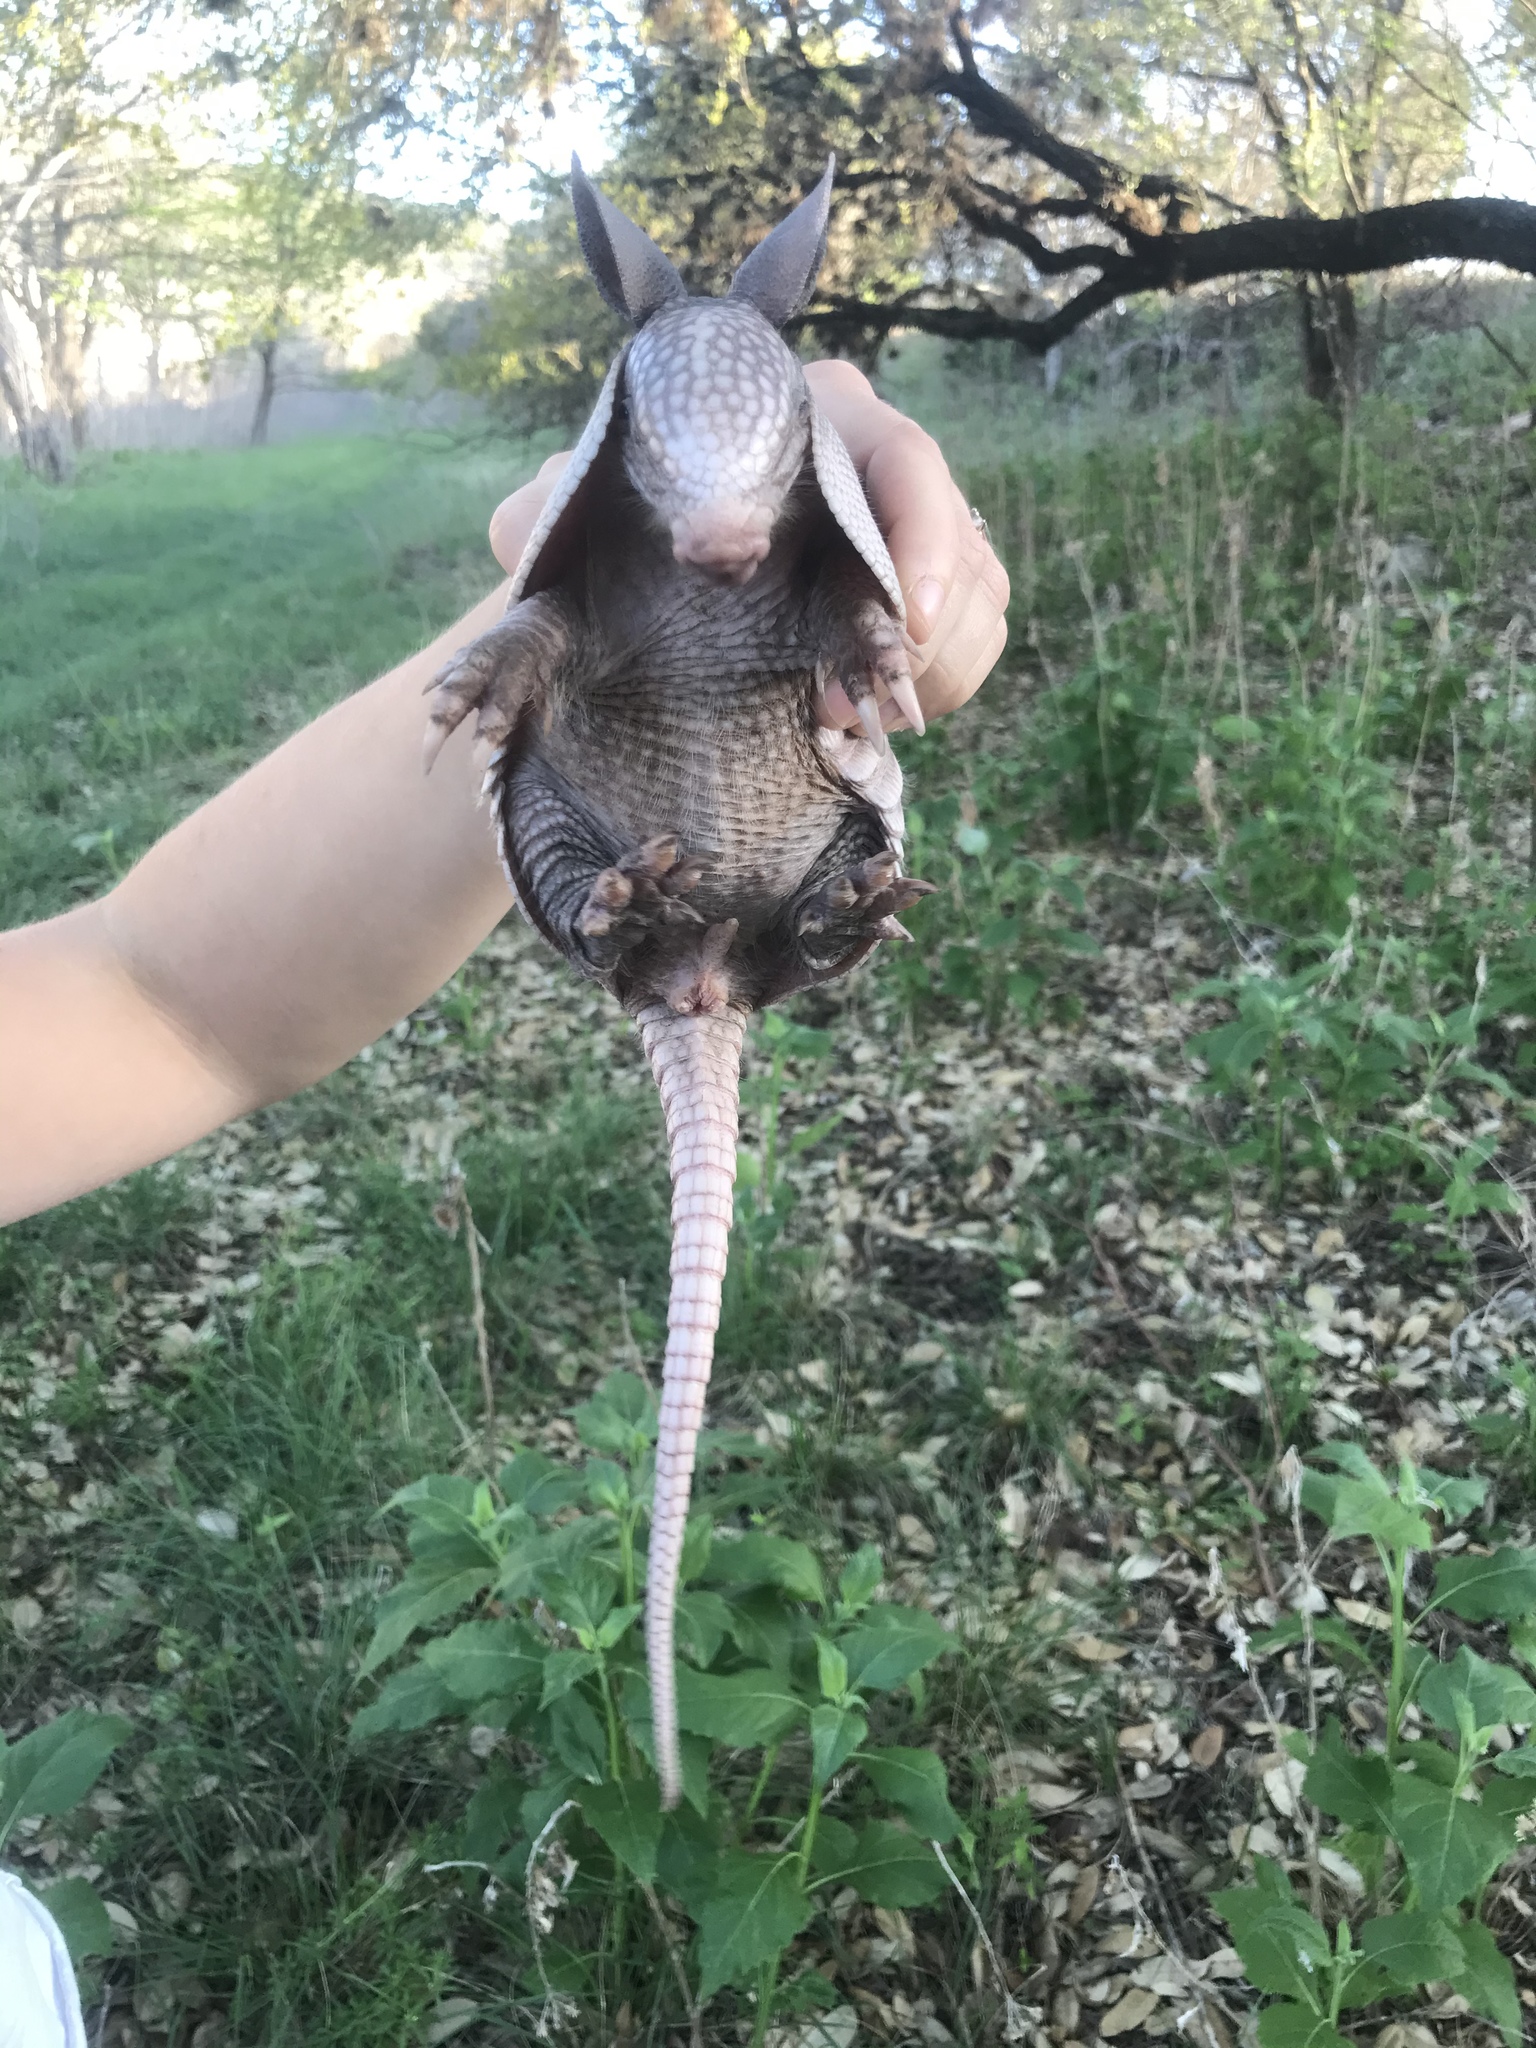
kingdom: Animalia
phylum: Chordata
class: Mammalia
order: Cingulata
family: Dasypodidae
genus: Dasypus
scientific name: Dasypus novemcinctus
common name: Nine-banded armadillo
